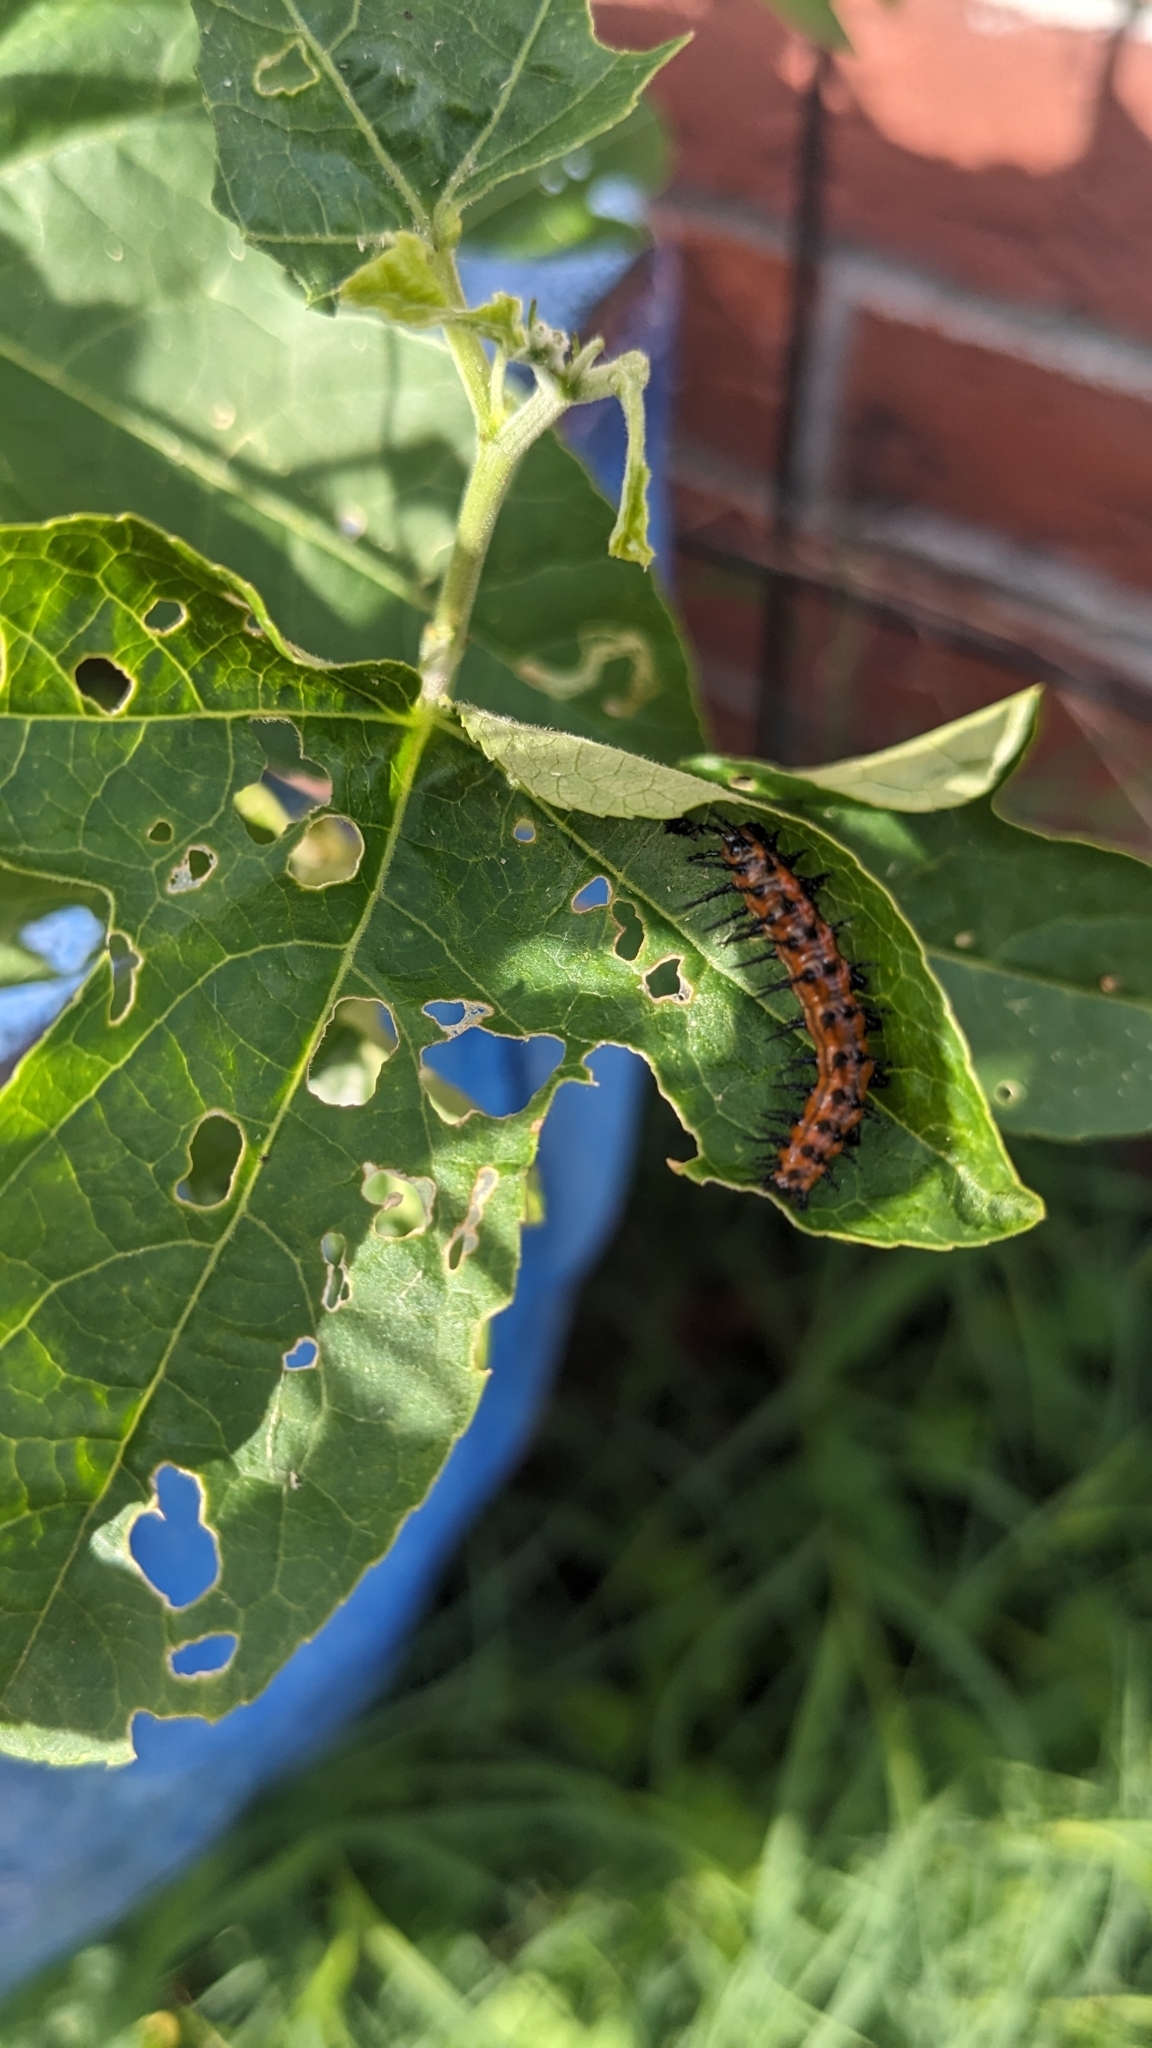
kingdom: Animalia
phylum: Arthropoda
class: Insecta
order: Lepidoptera
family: Nymphalidae
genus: Dione
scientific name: Dione vanillae
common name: Gulf fritillary
